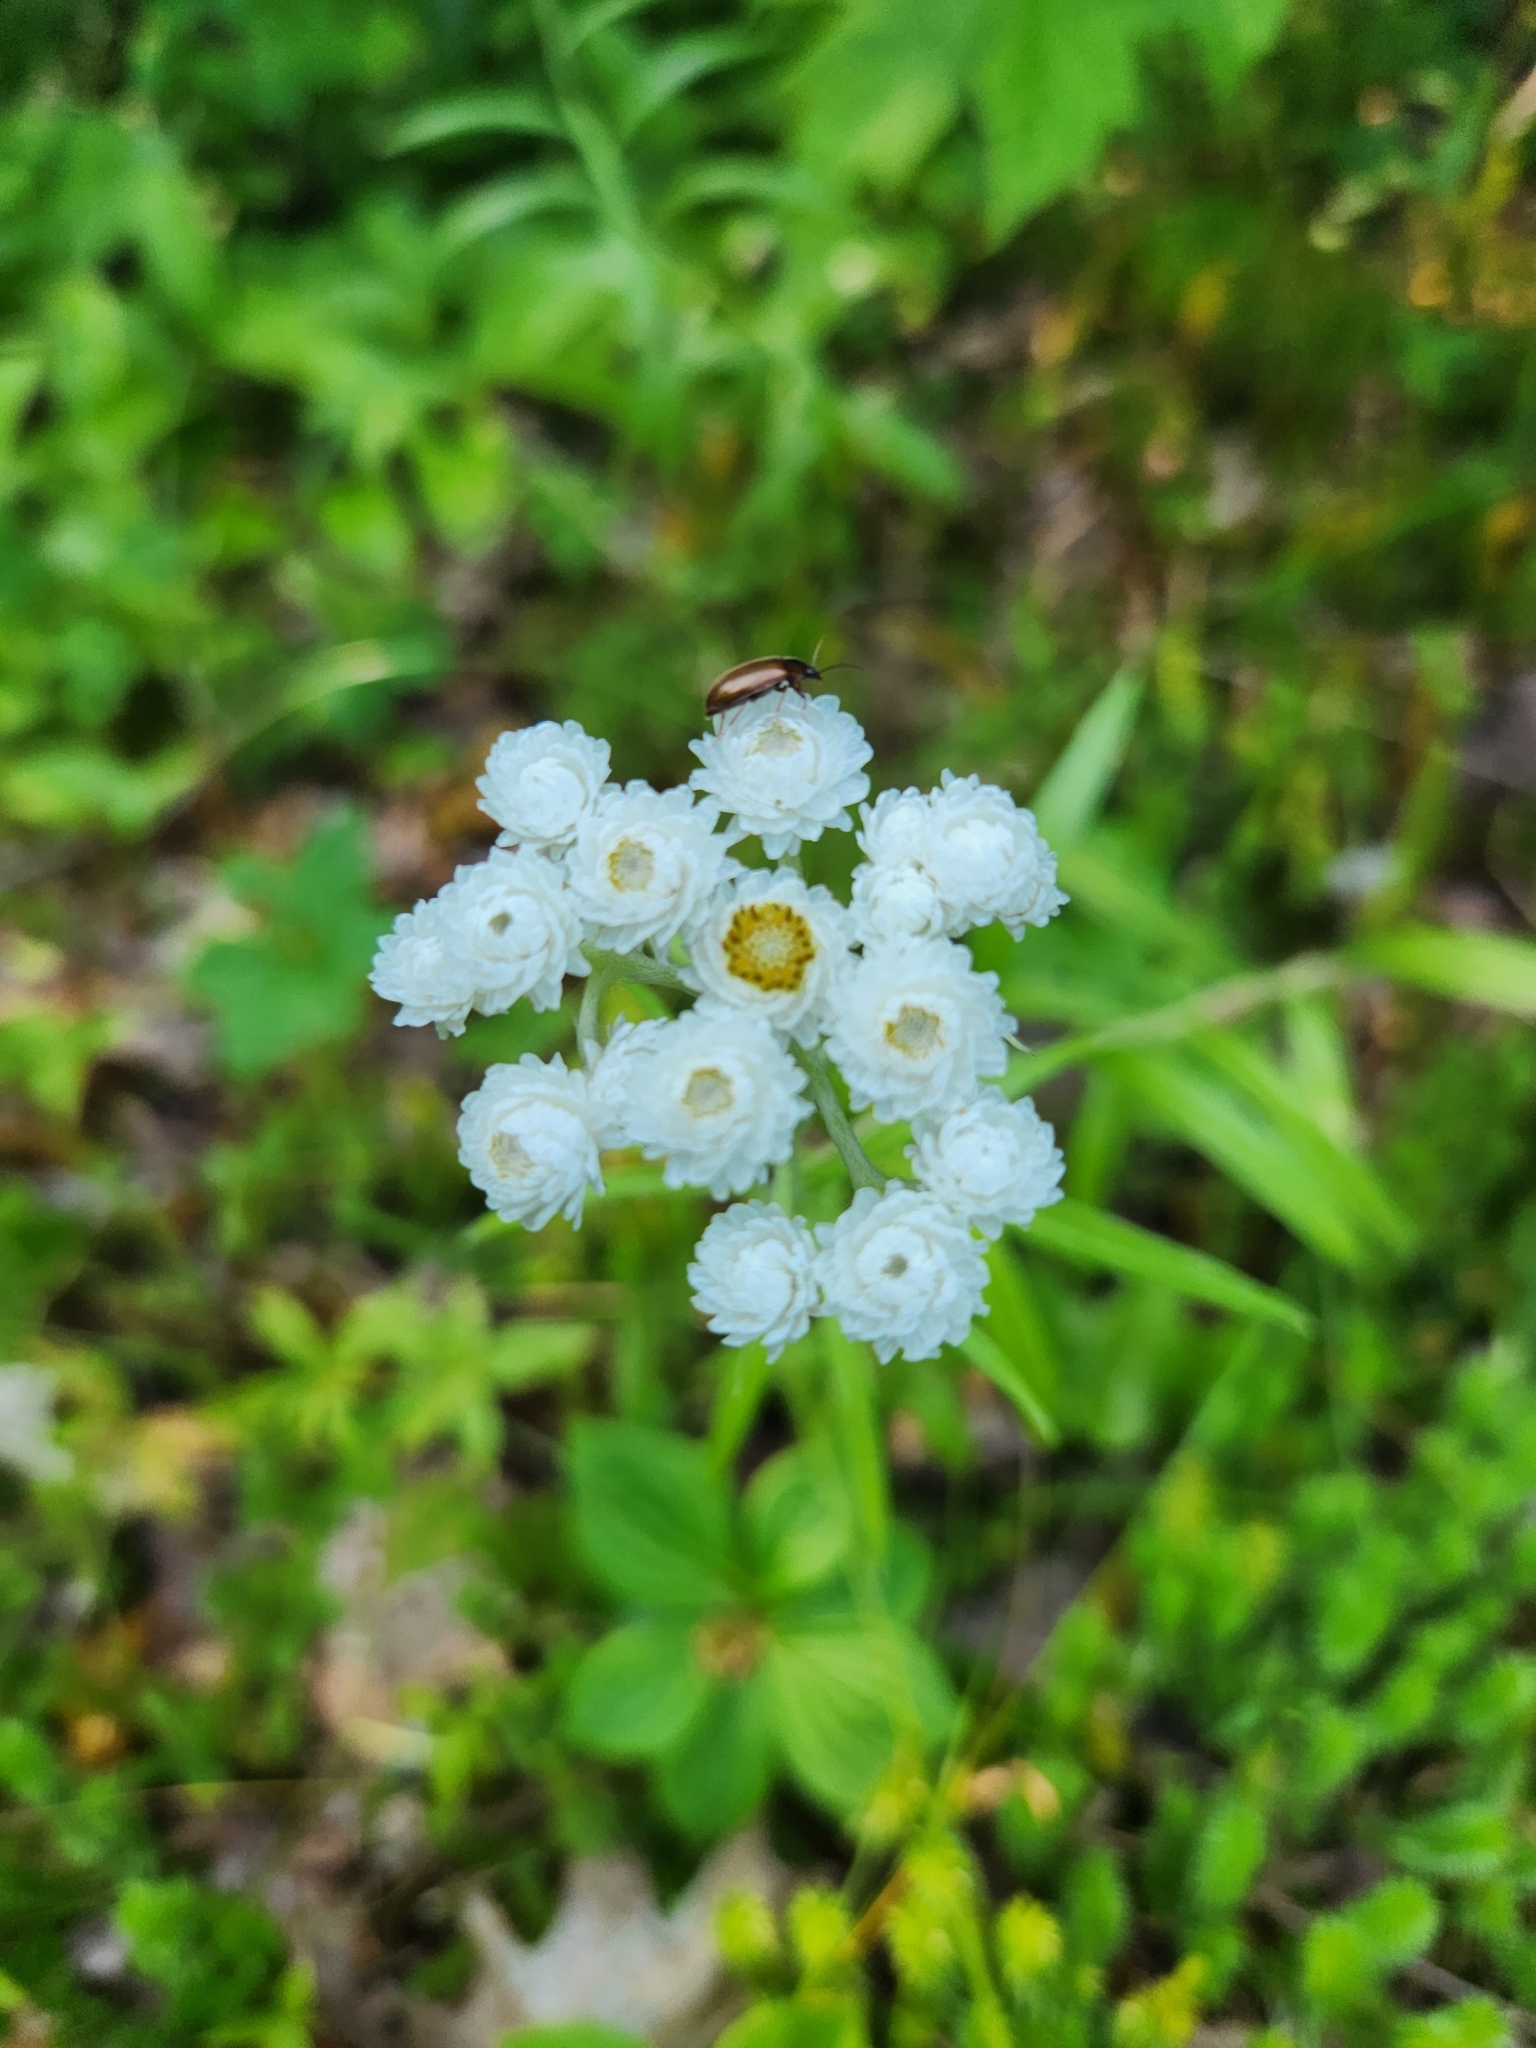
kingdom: Plantae
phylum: Tracheophyta
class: Magnoliopsida
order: Asterales
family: Asteraceae
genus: Anaphalis
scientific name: Anaphalis margaritacea
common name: Pearly everlasting
